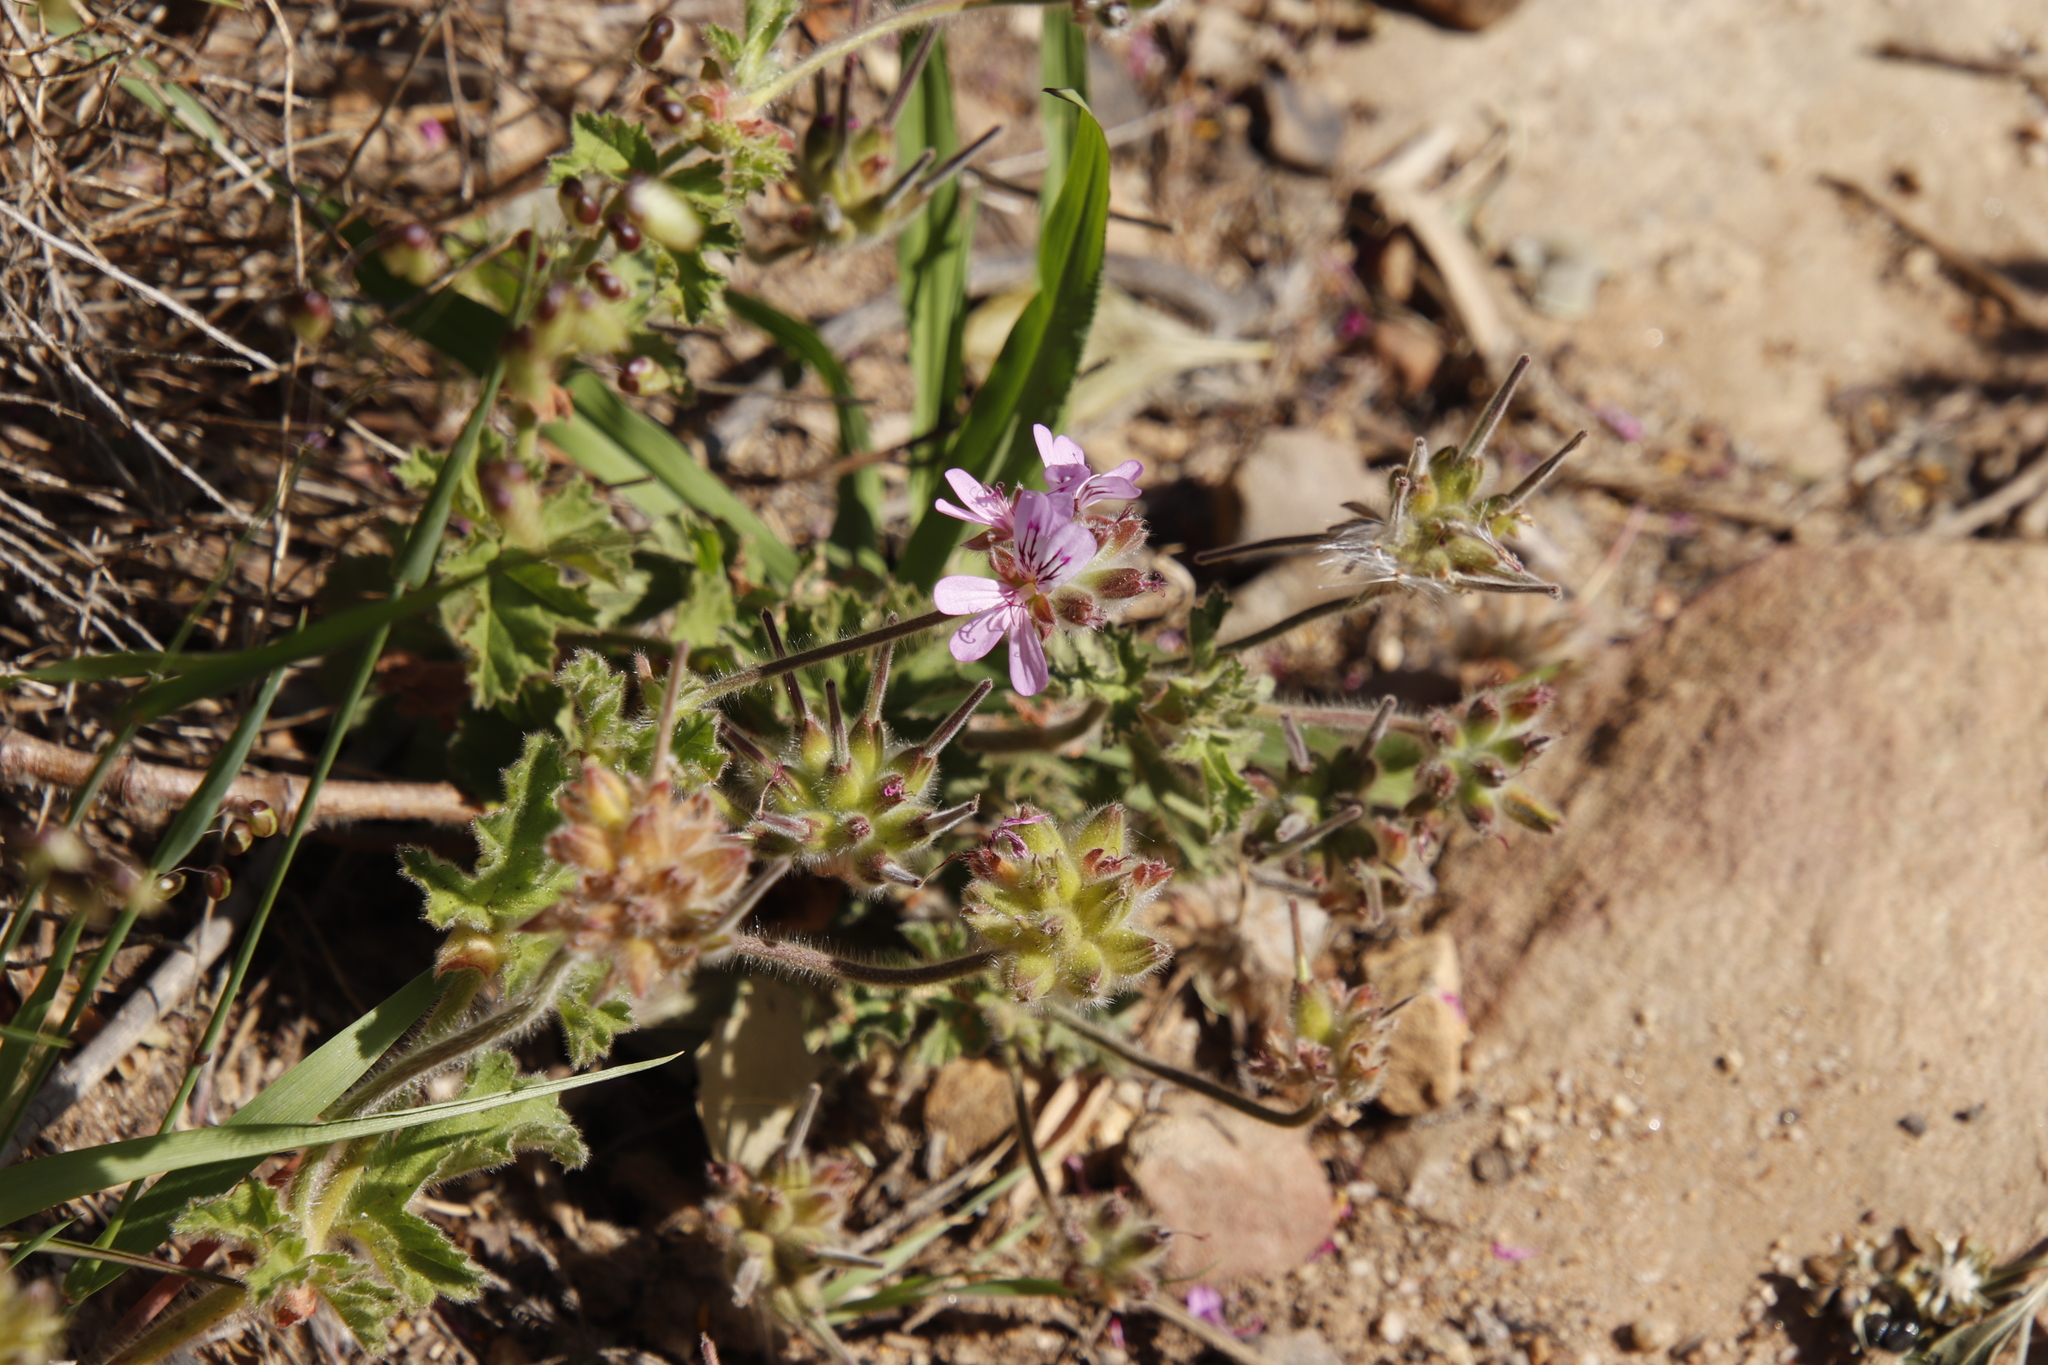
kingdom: Plantae
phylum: Tracheophyta
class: Magnoliopsida
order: Geraniales
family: Geraniaceae
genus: Pelargonium
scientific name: Pelargonium capitatum
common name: Rose scented geranium
